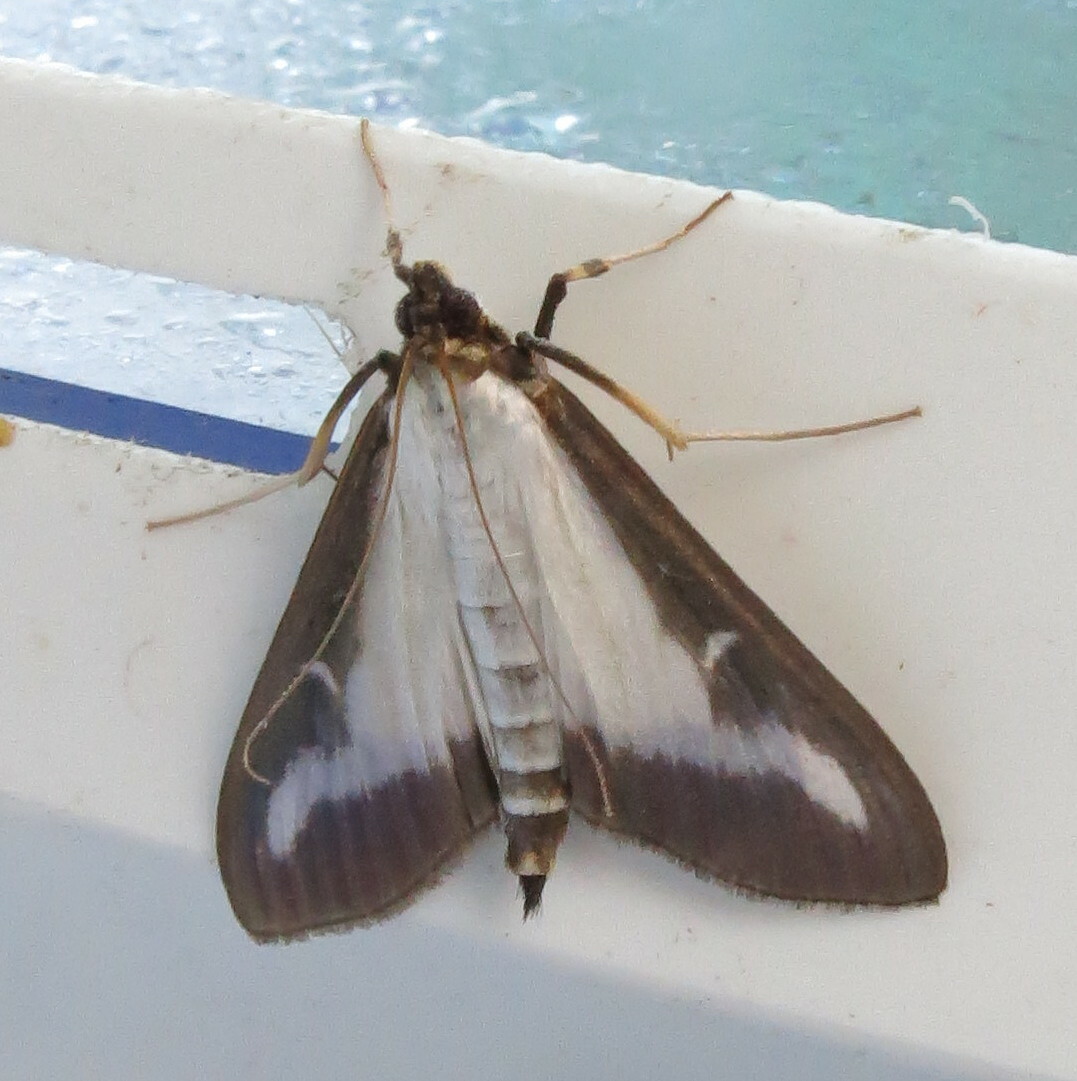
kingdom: Animalia
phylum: Arthropoda
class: Insecta
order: Lepidoptera
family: Crambidae
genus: Cydalima
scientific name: Cydalima perspectalis
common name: Box tree moth
